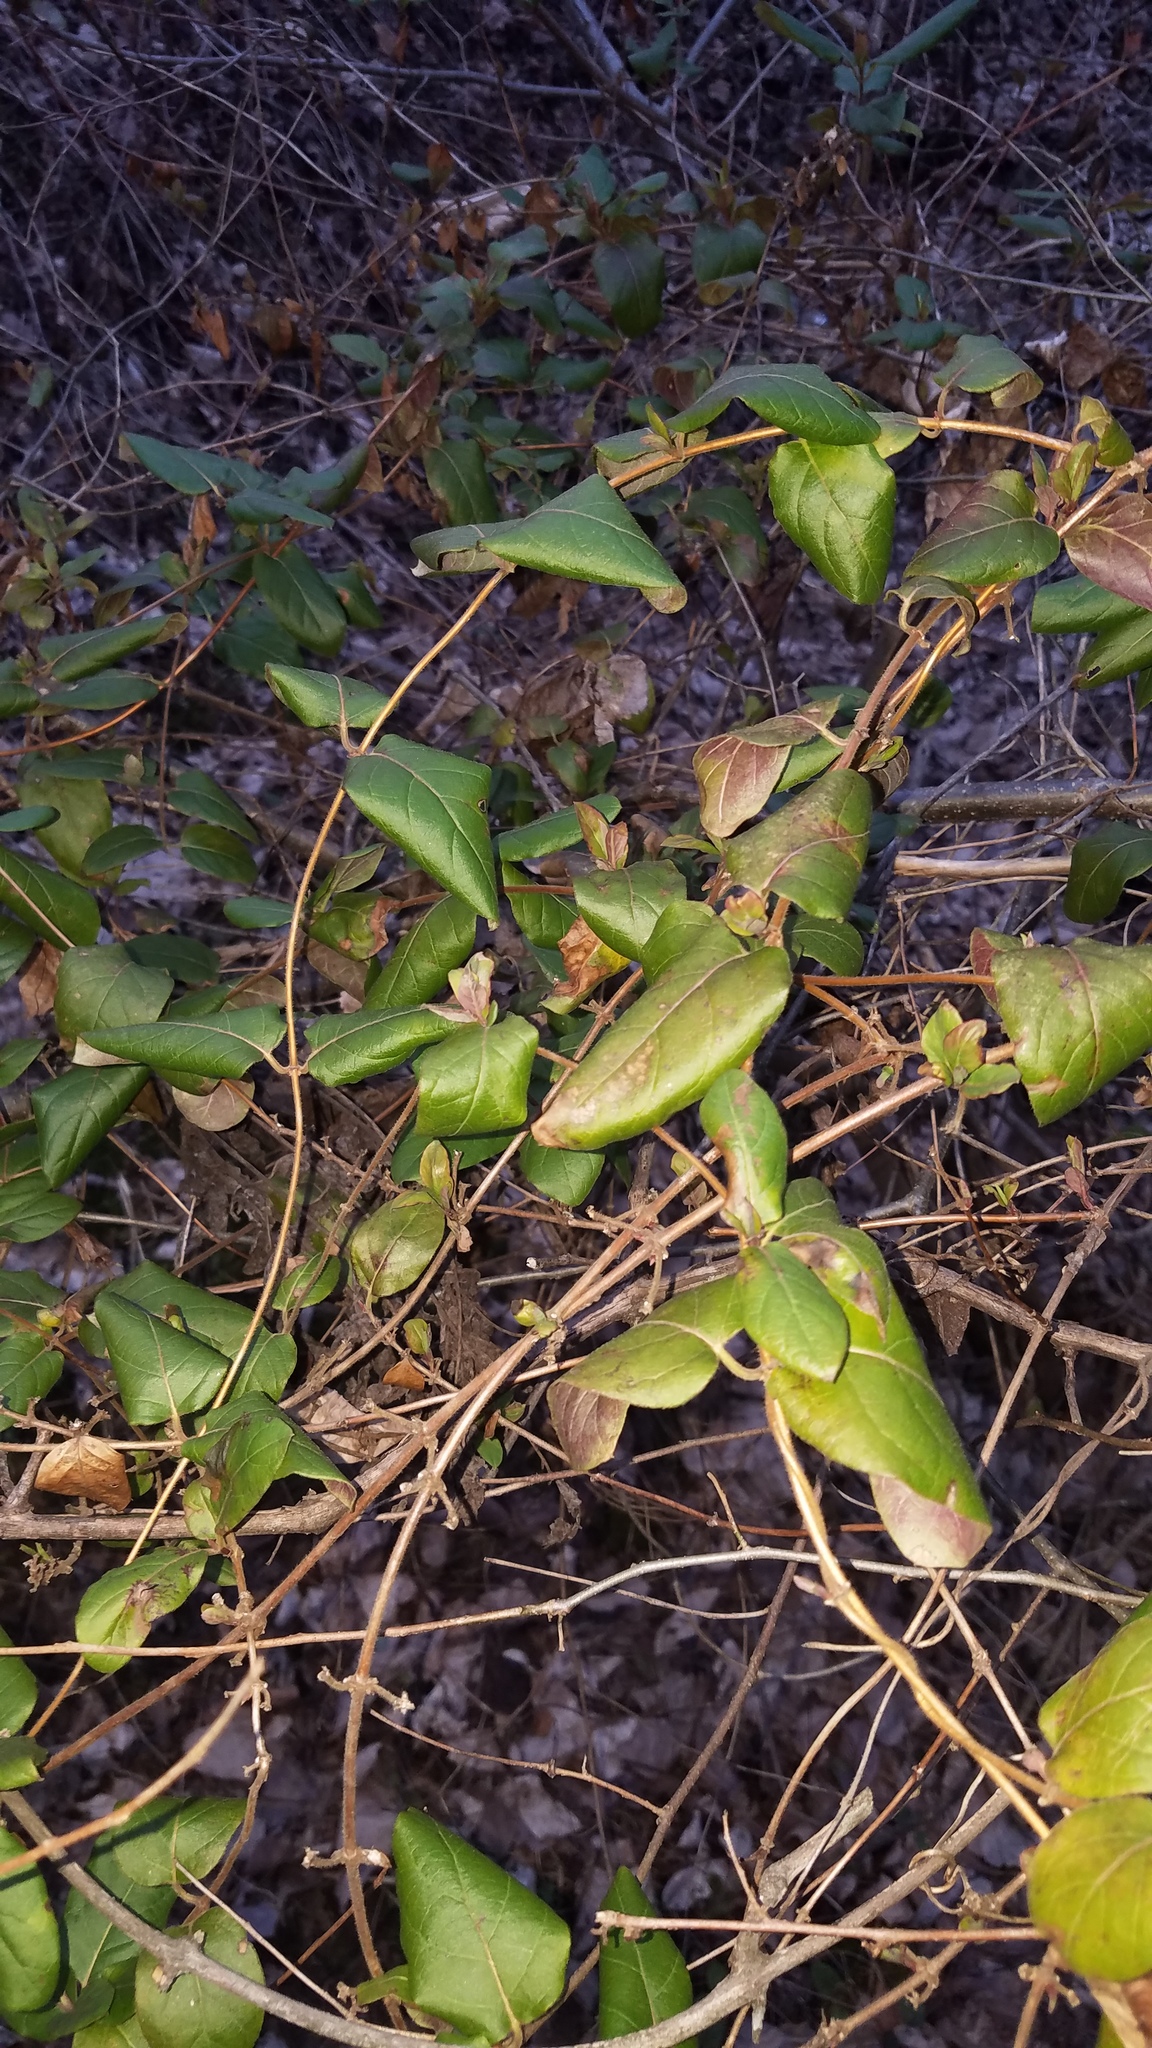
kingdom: Plantae
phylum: Tracheophyta
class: Magnoliopsida
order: Dipsacales
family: Caprifoliaceae
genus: Lonicera
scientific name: Lonicera japonica
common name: Japanese honeysuckle
